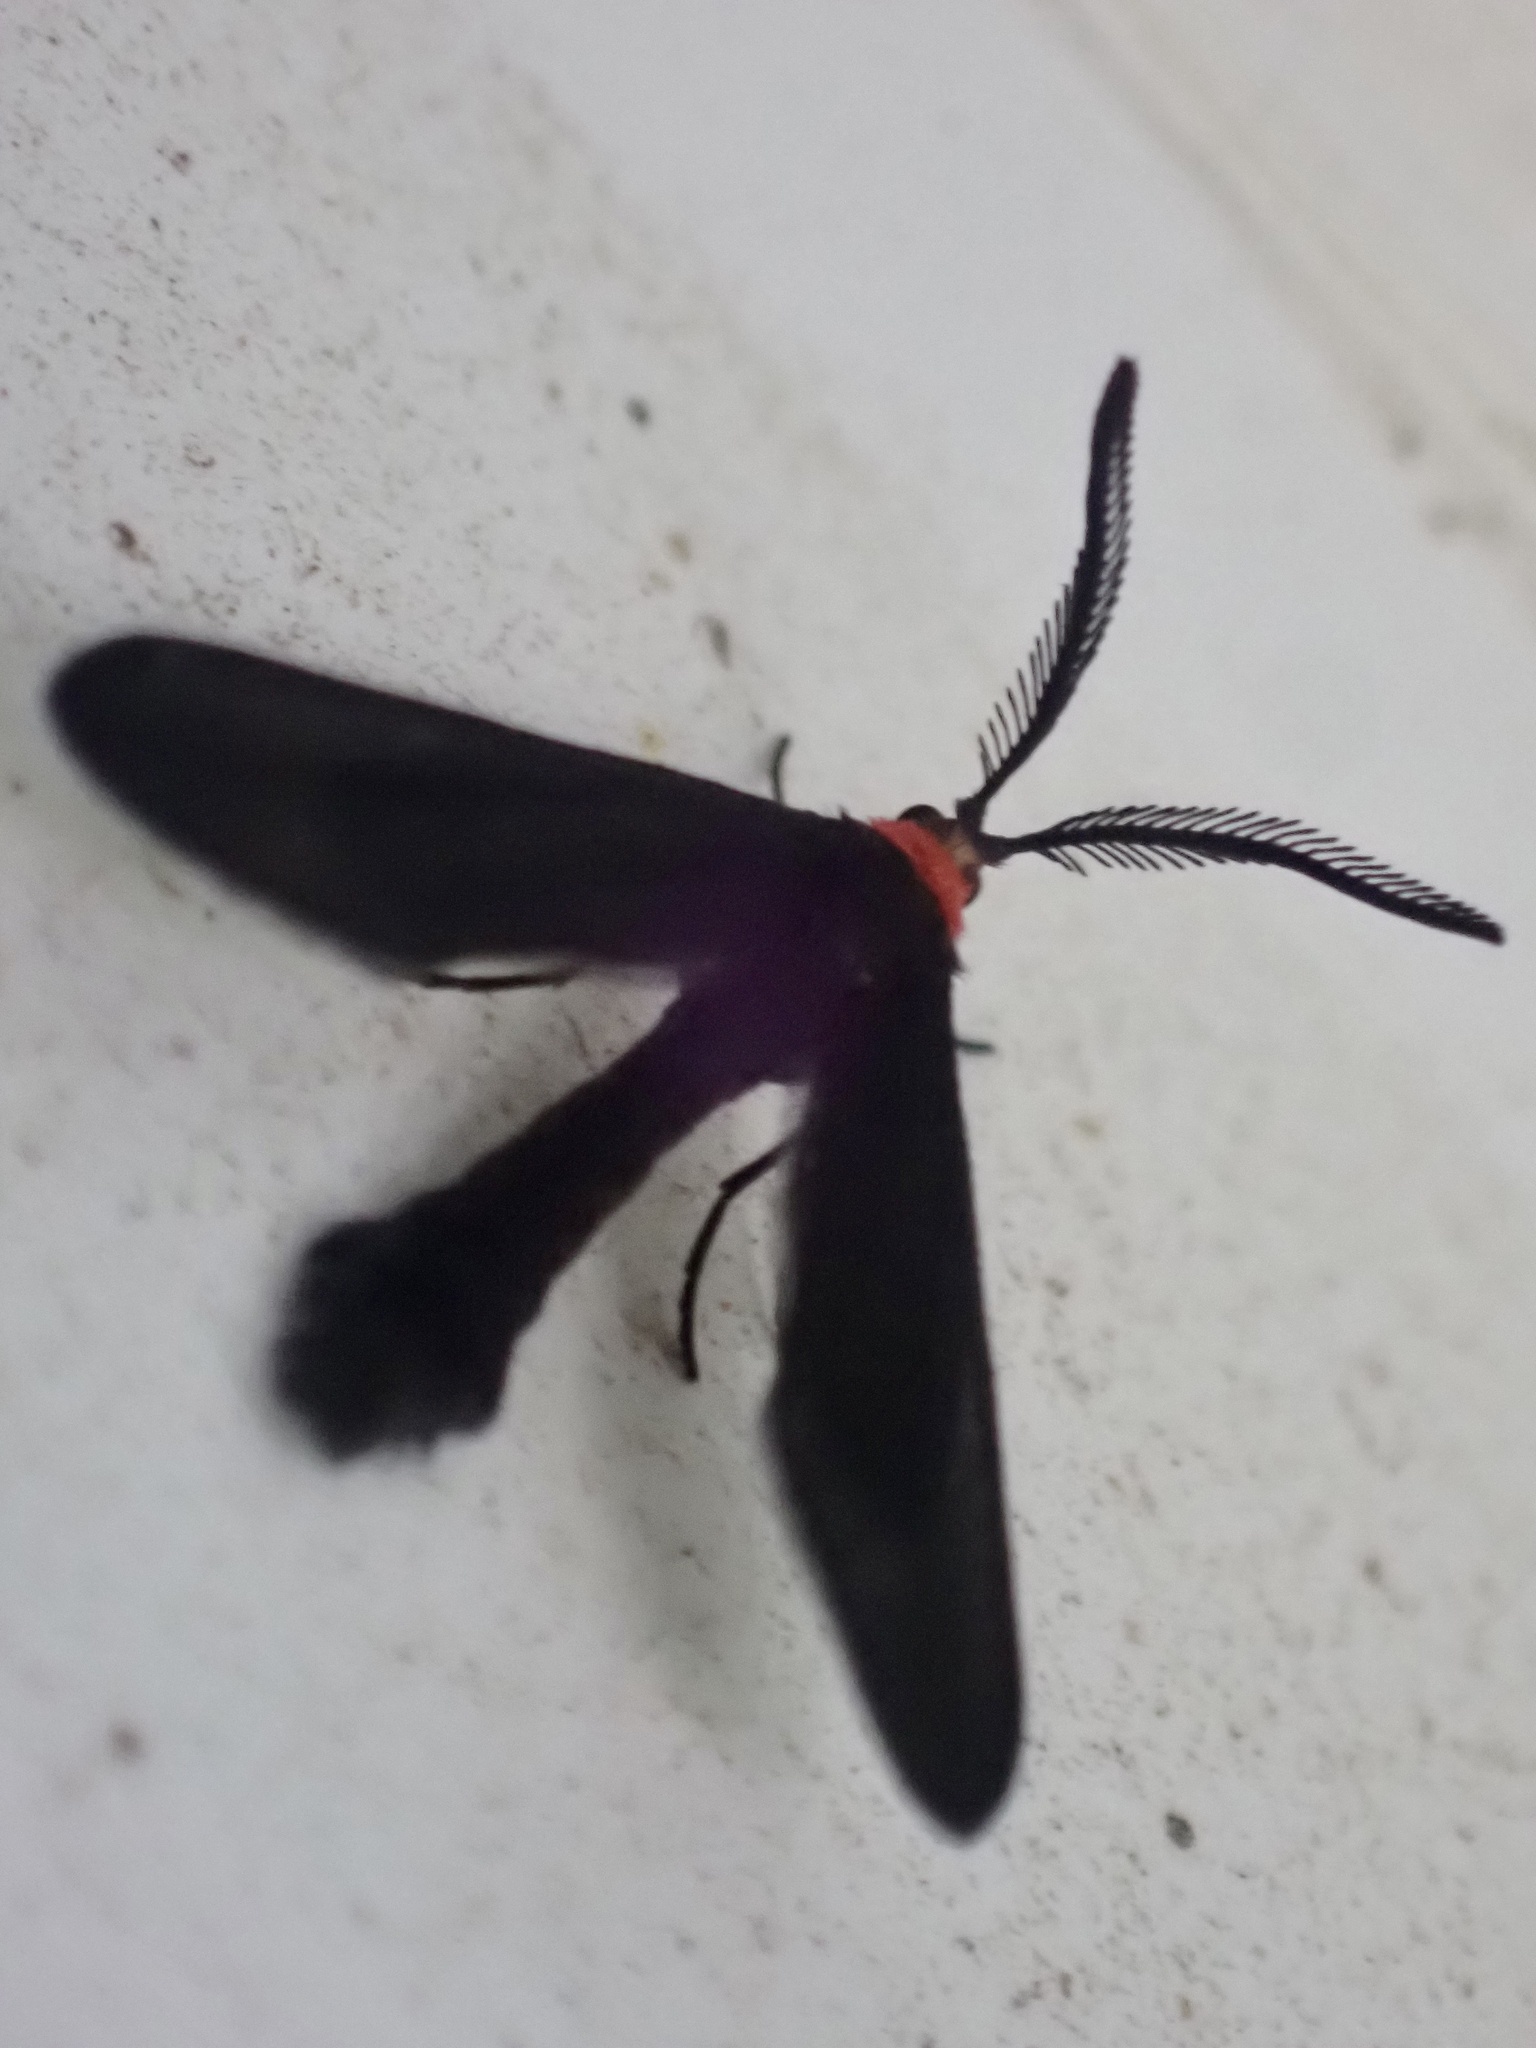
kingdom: Animalia
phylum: Arthropoda
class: Insecta
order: Lepidoptera
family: Zygaenidae
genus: Harrisina
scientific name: Harrisina americana
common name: Grapeleaf skeletonizer moth
